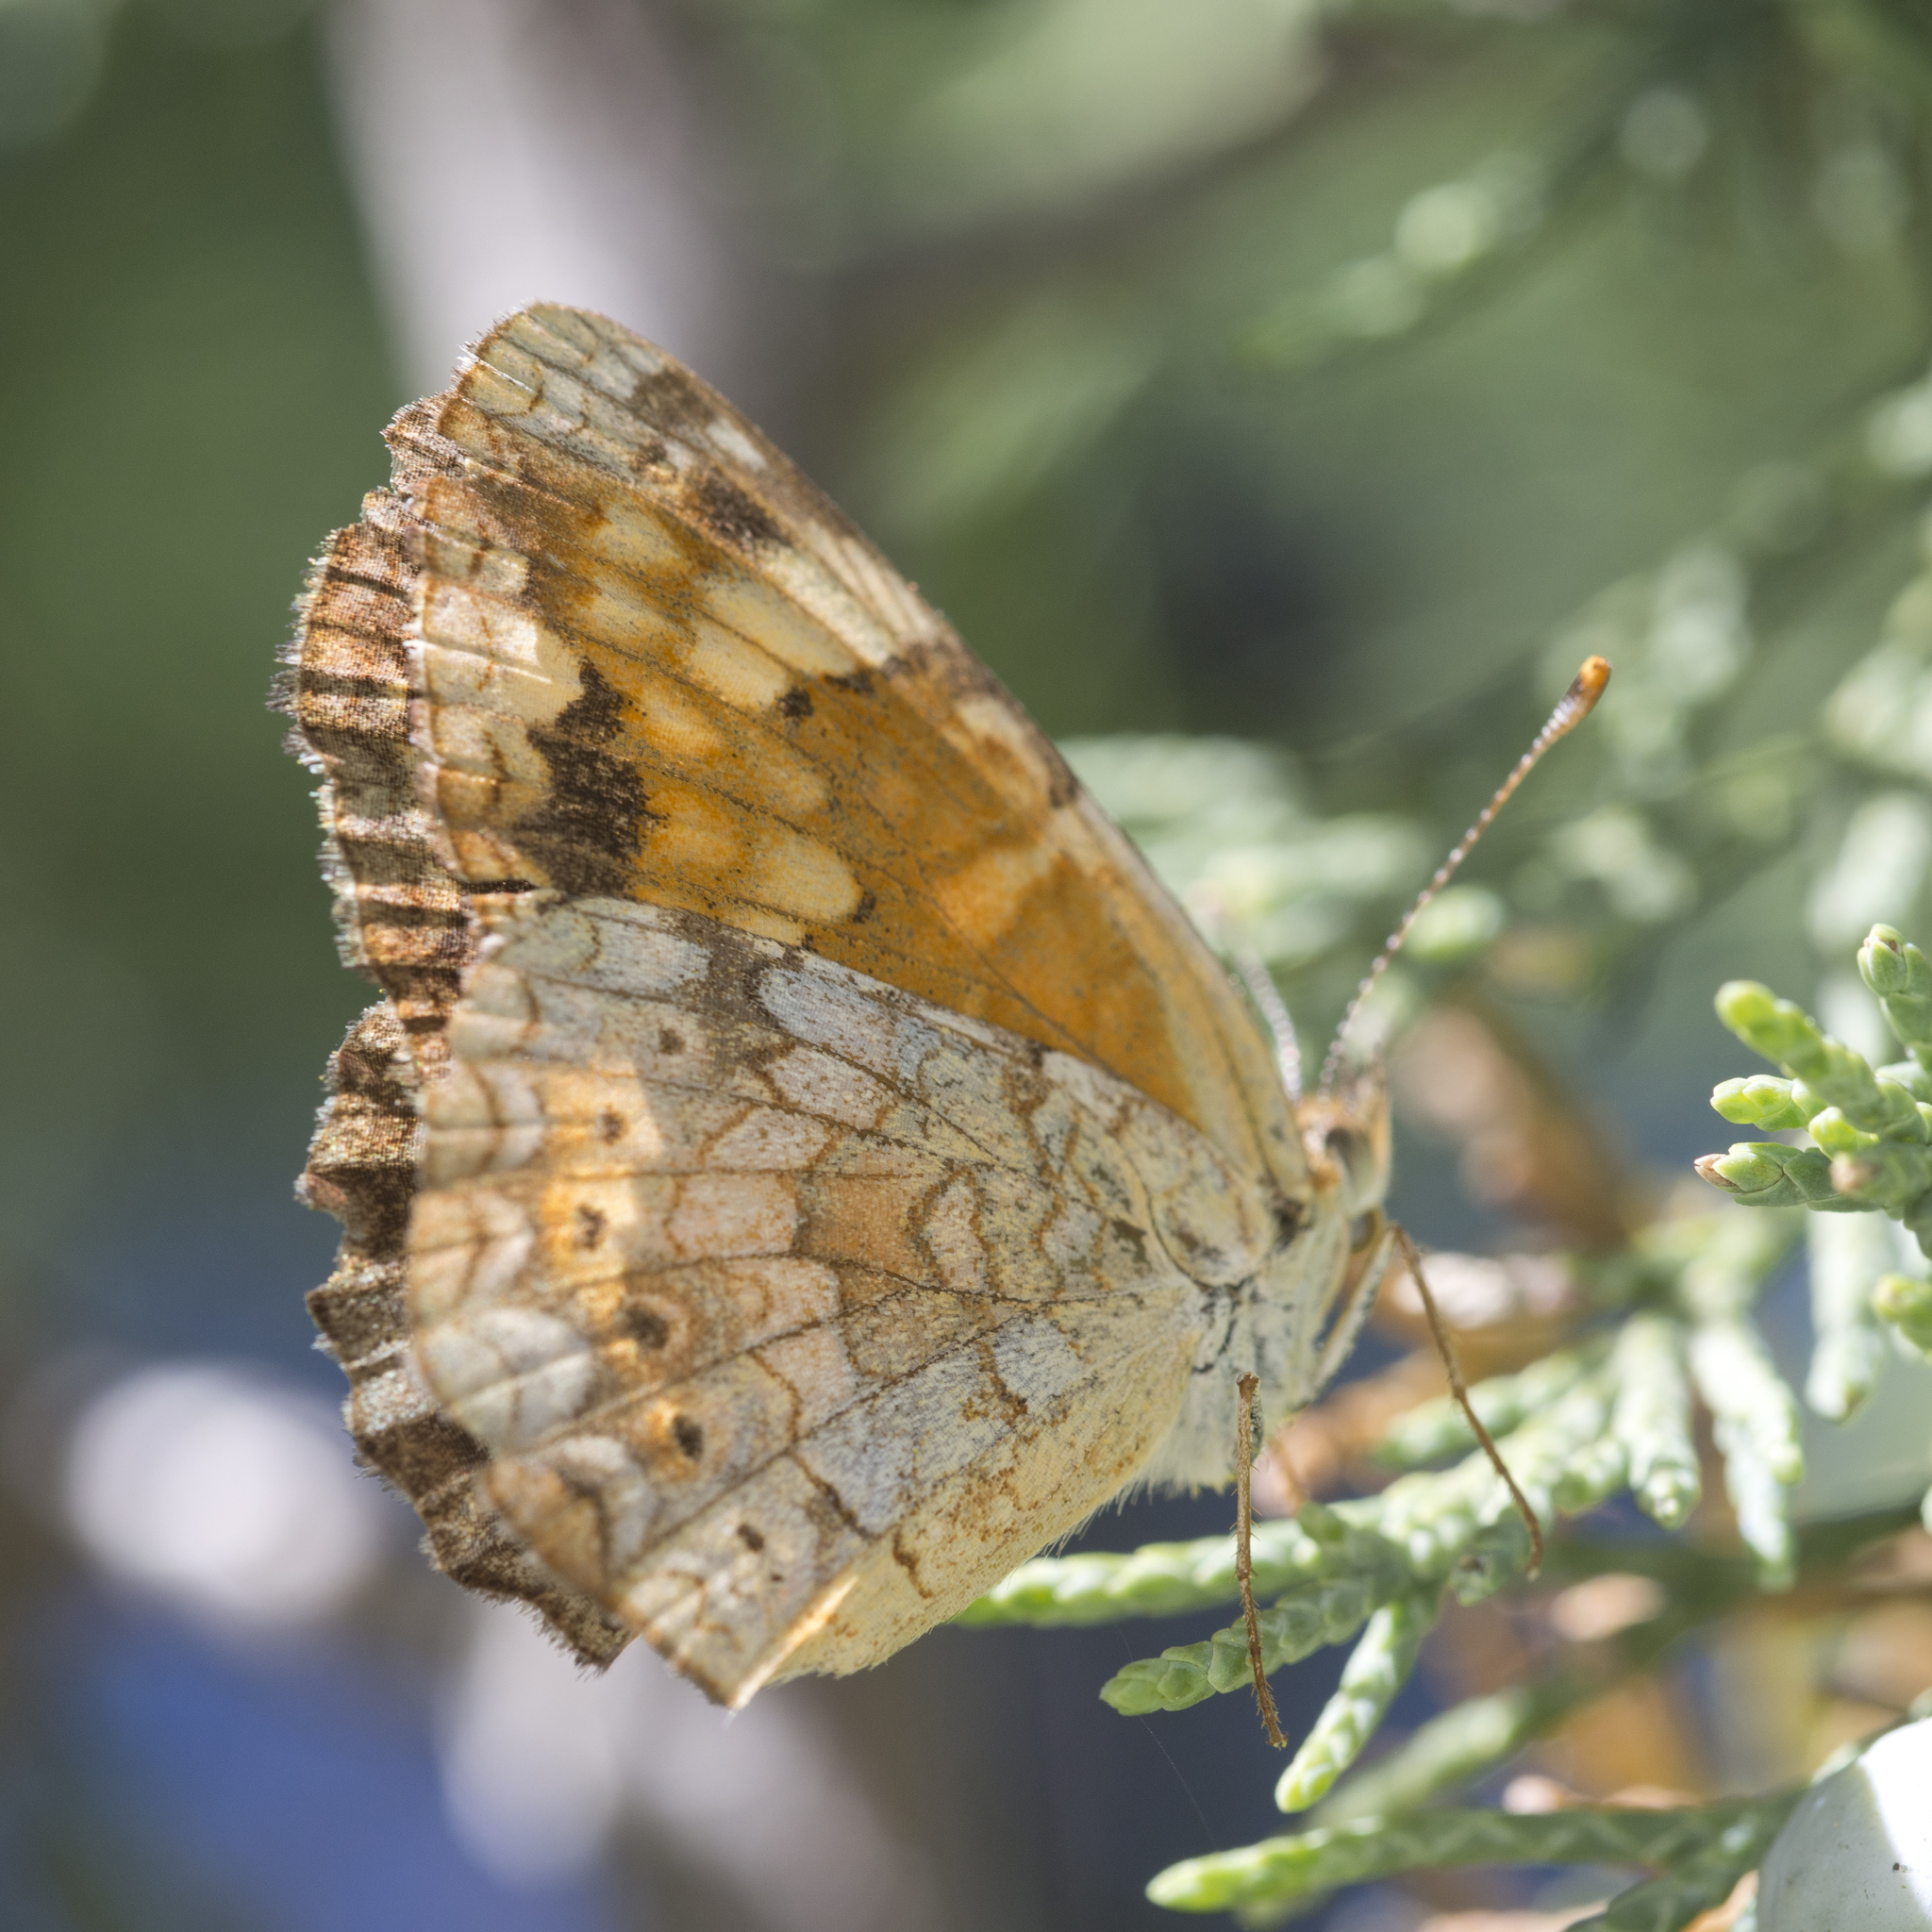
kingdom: Animalia
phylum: Arthropoda
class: Insecta
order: Lepidoptera
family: Nymphalidae
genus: Phyciodes
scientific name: Phyciodes batesii
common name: Tawny crescent
